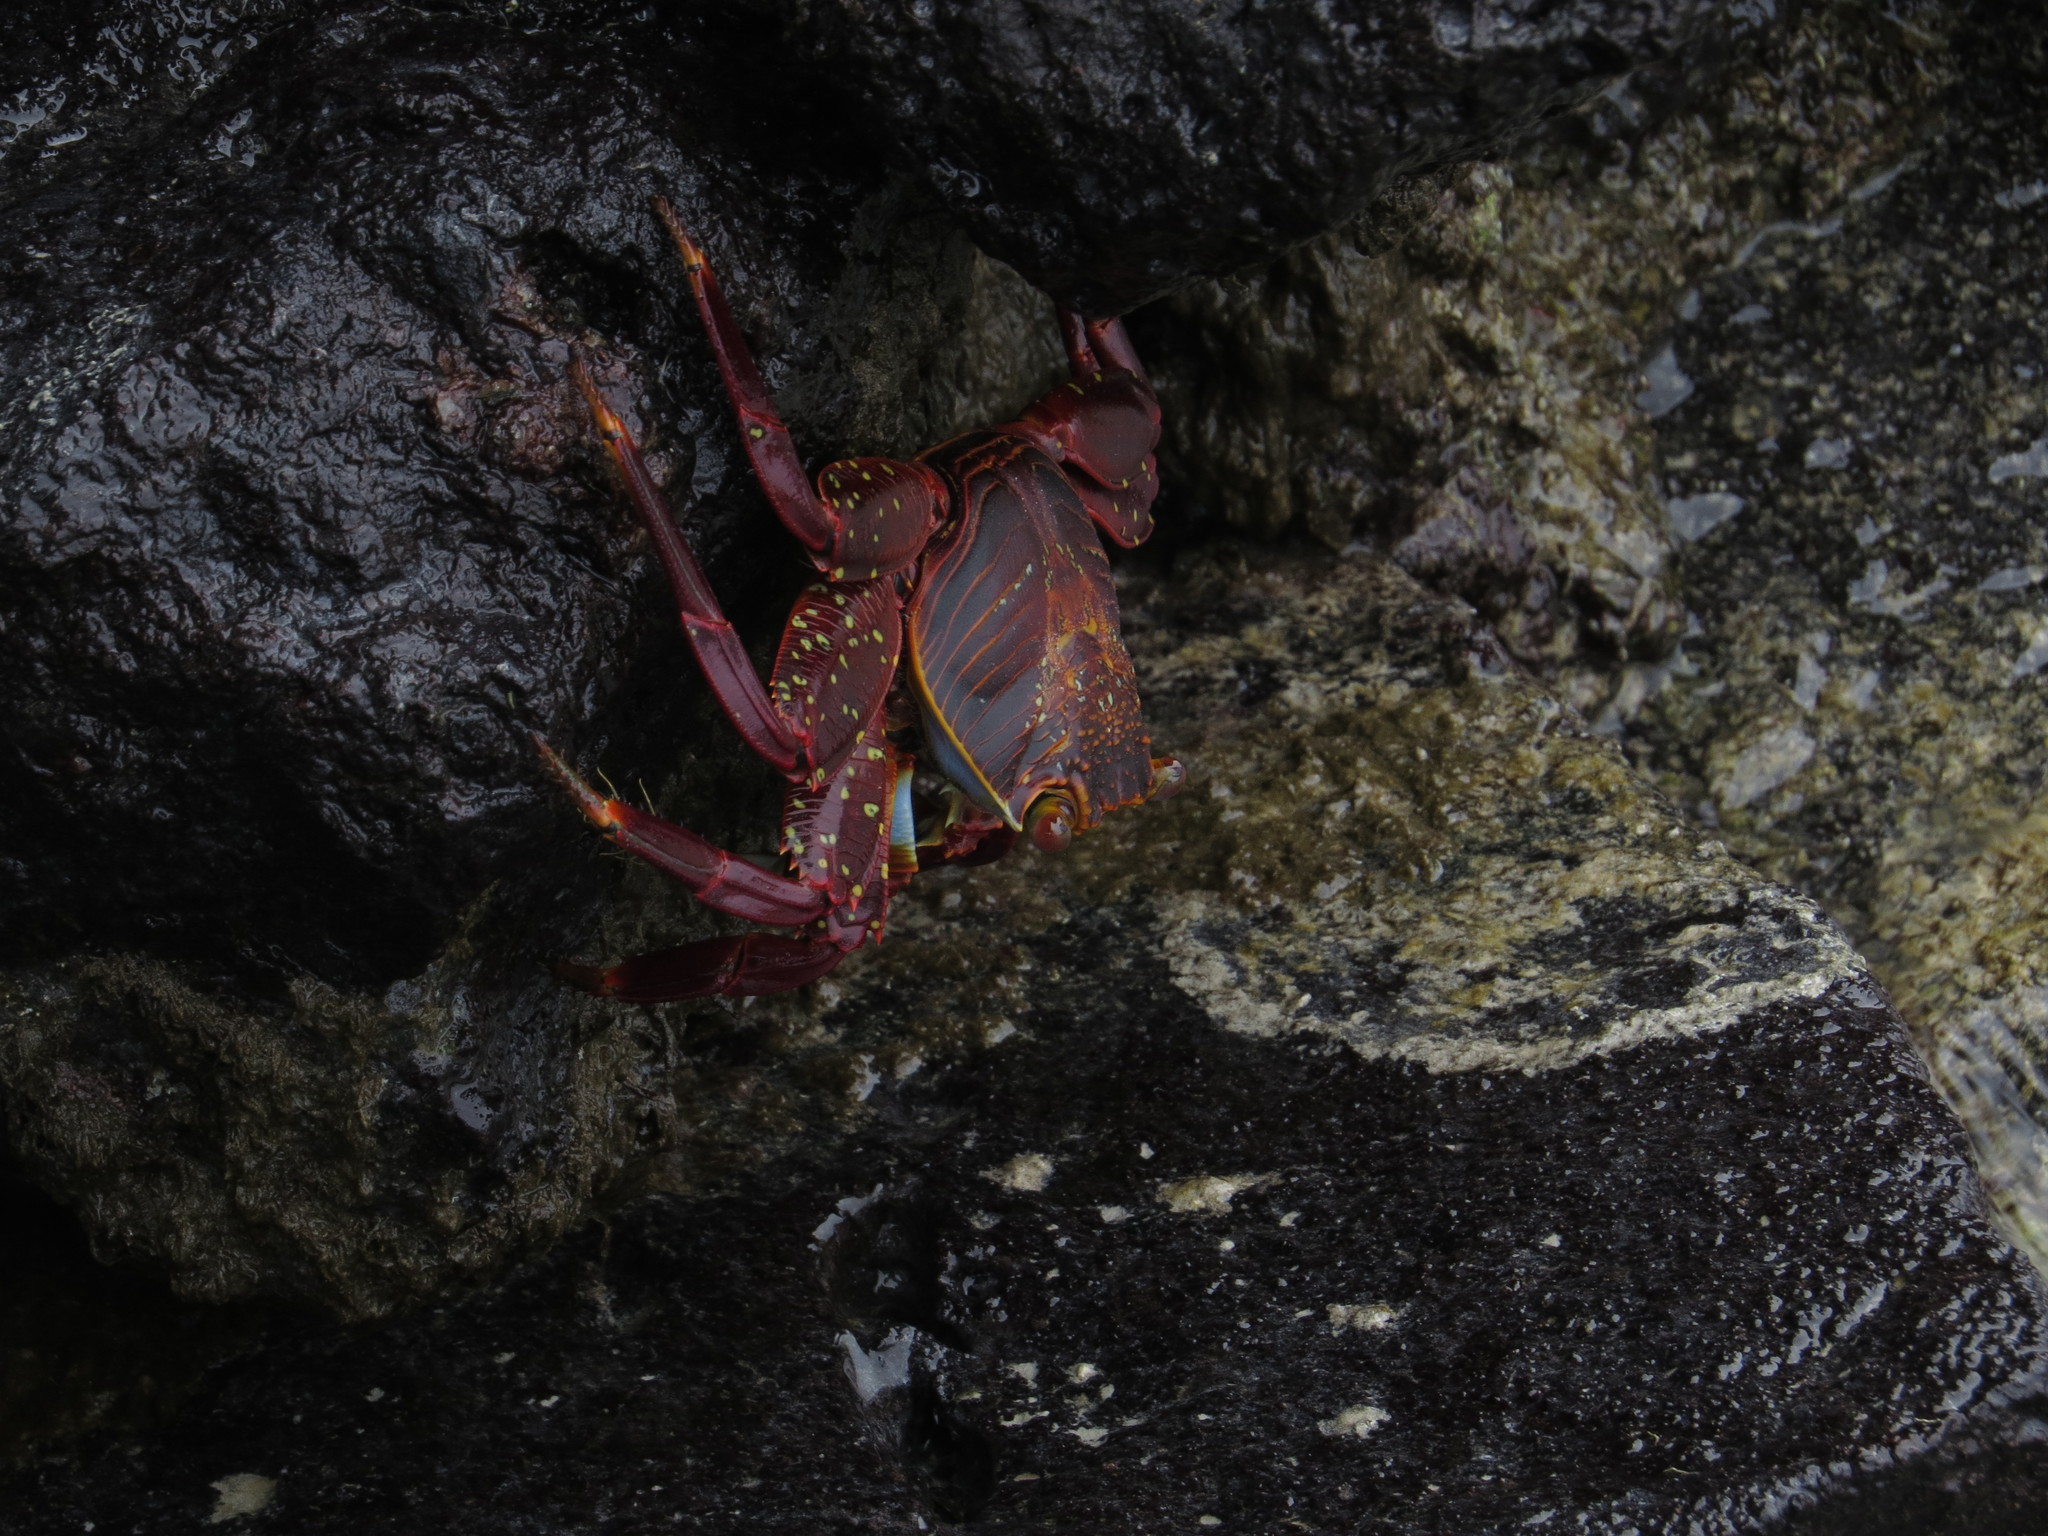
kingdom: Animalia
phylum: Arthropoda
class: Malacostraca
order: Decapoda
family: Grapsidae
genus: Grapsus
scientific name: Grapsus grapsus
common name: Sally lightfoot
